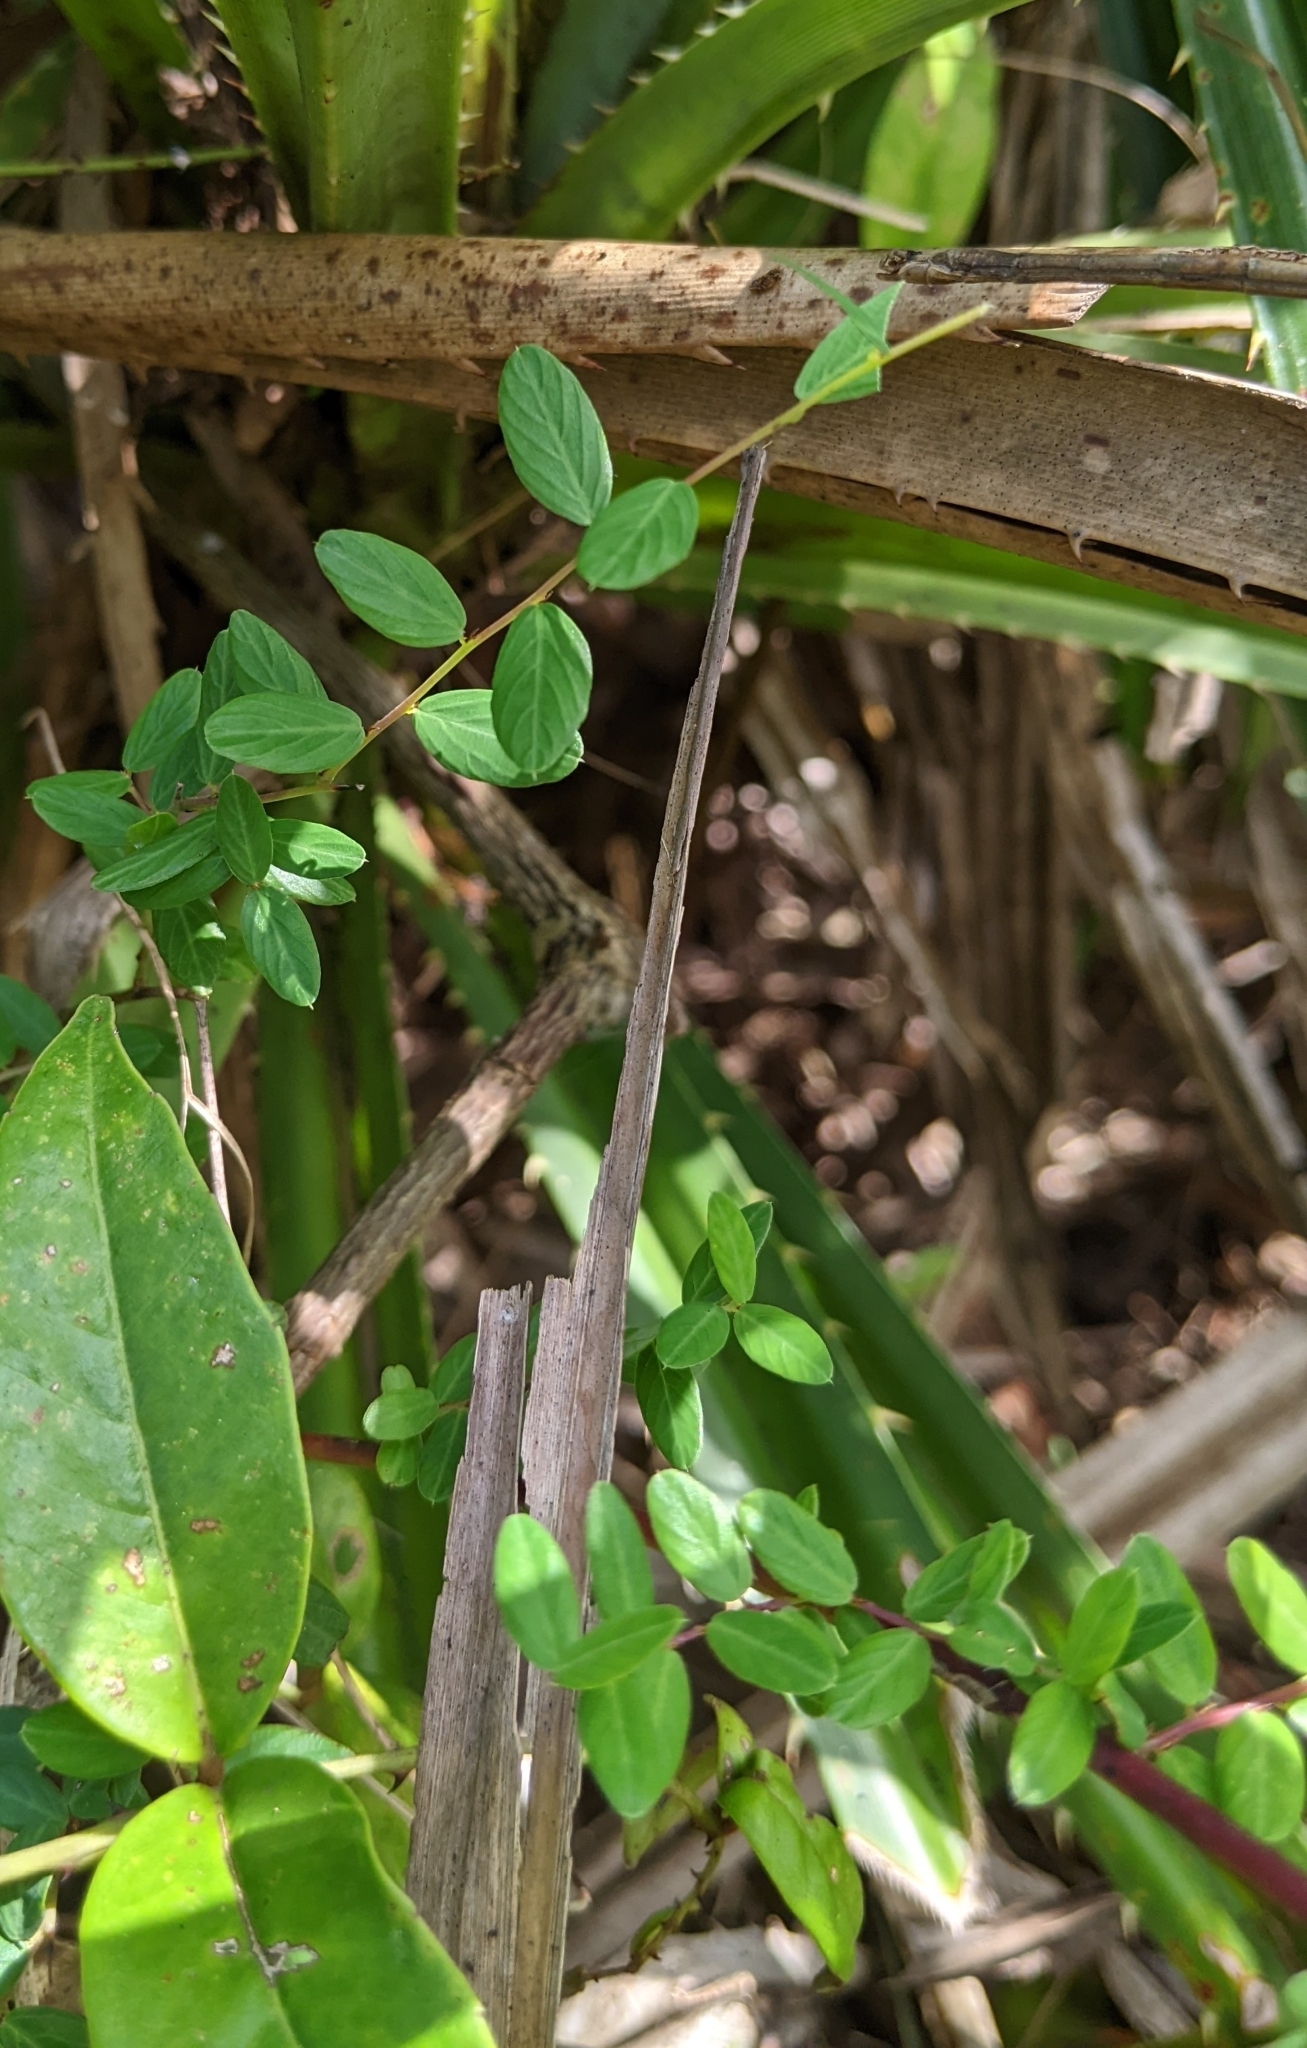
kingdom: Plantae
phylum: Tracheophyta
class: Magnoliopsida
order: Rosales
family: Rhamnaceae
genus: Berchemia
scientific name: Berchemia lineata
